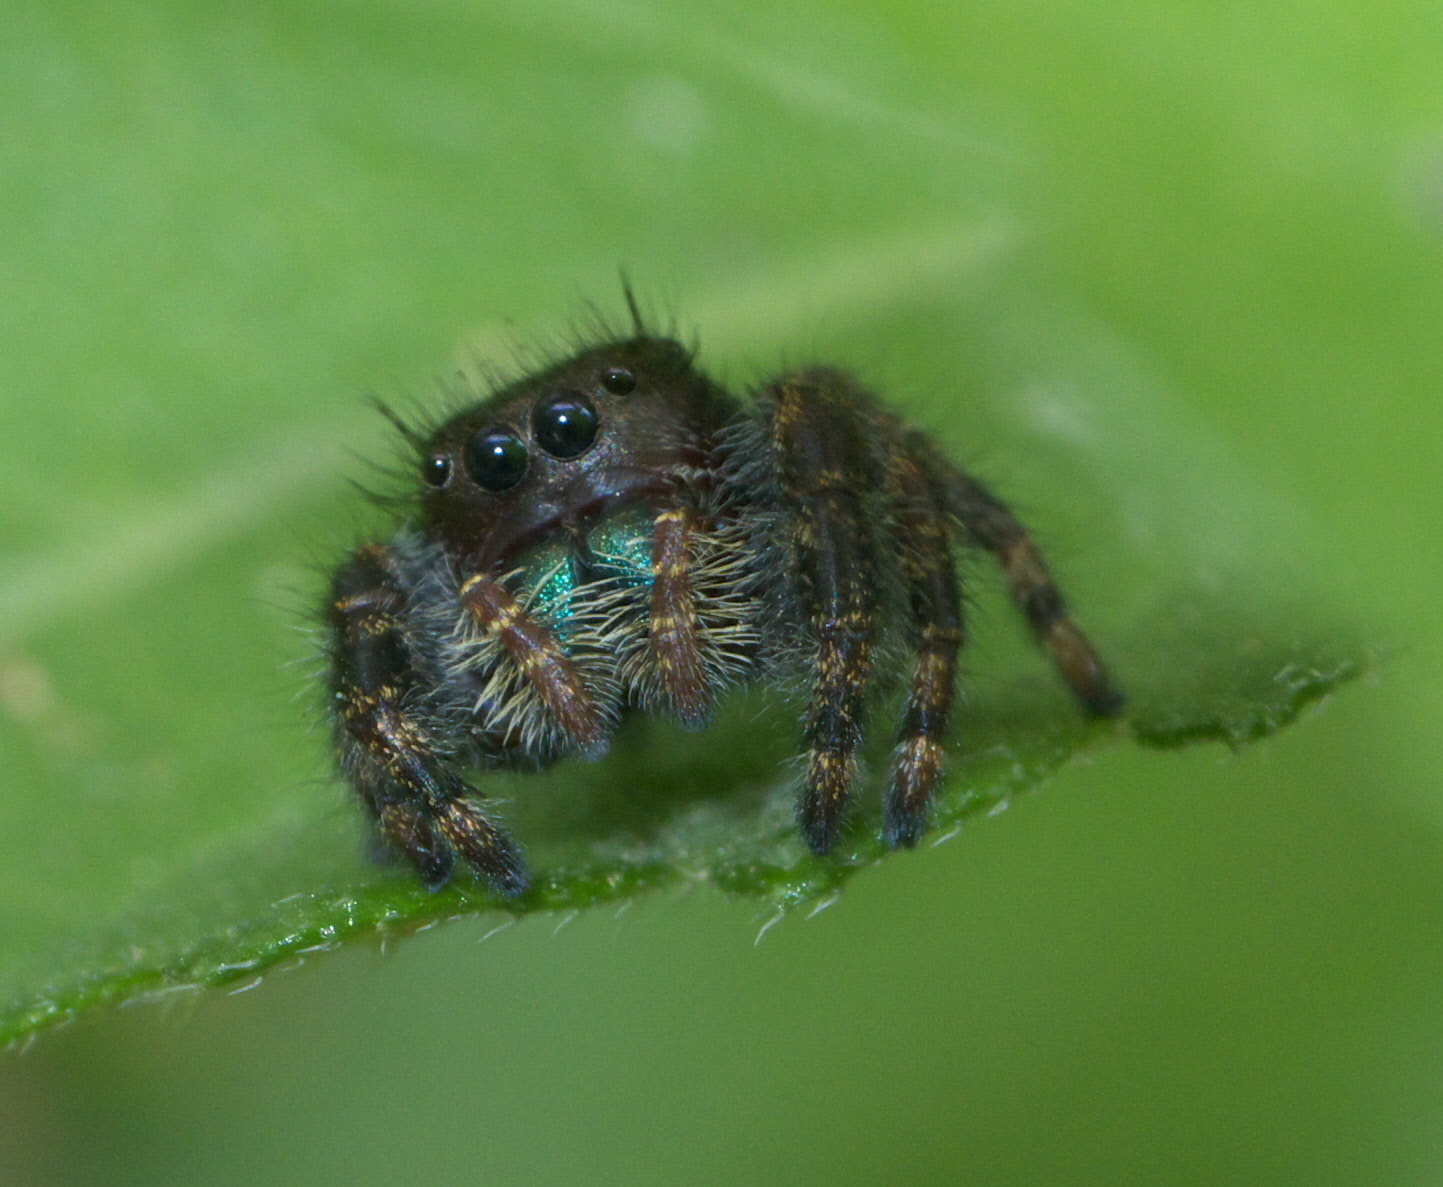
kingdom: Animalia
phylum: Arthropoda
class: Arachnida
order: Araneae
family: Salticidae
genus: Phidippus
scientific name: Phidippus audax
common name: Bold jumper
